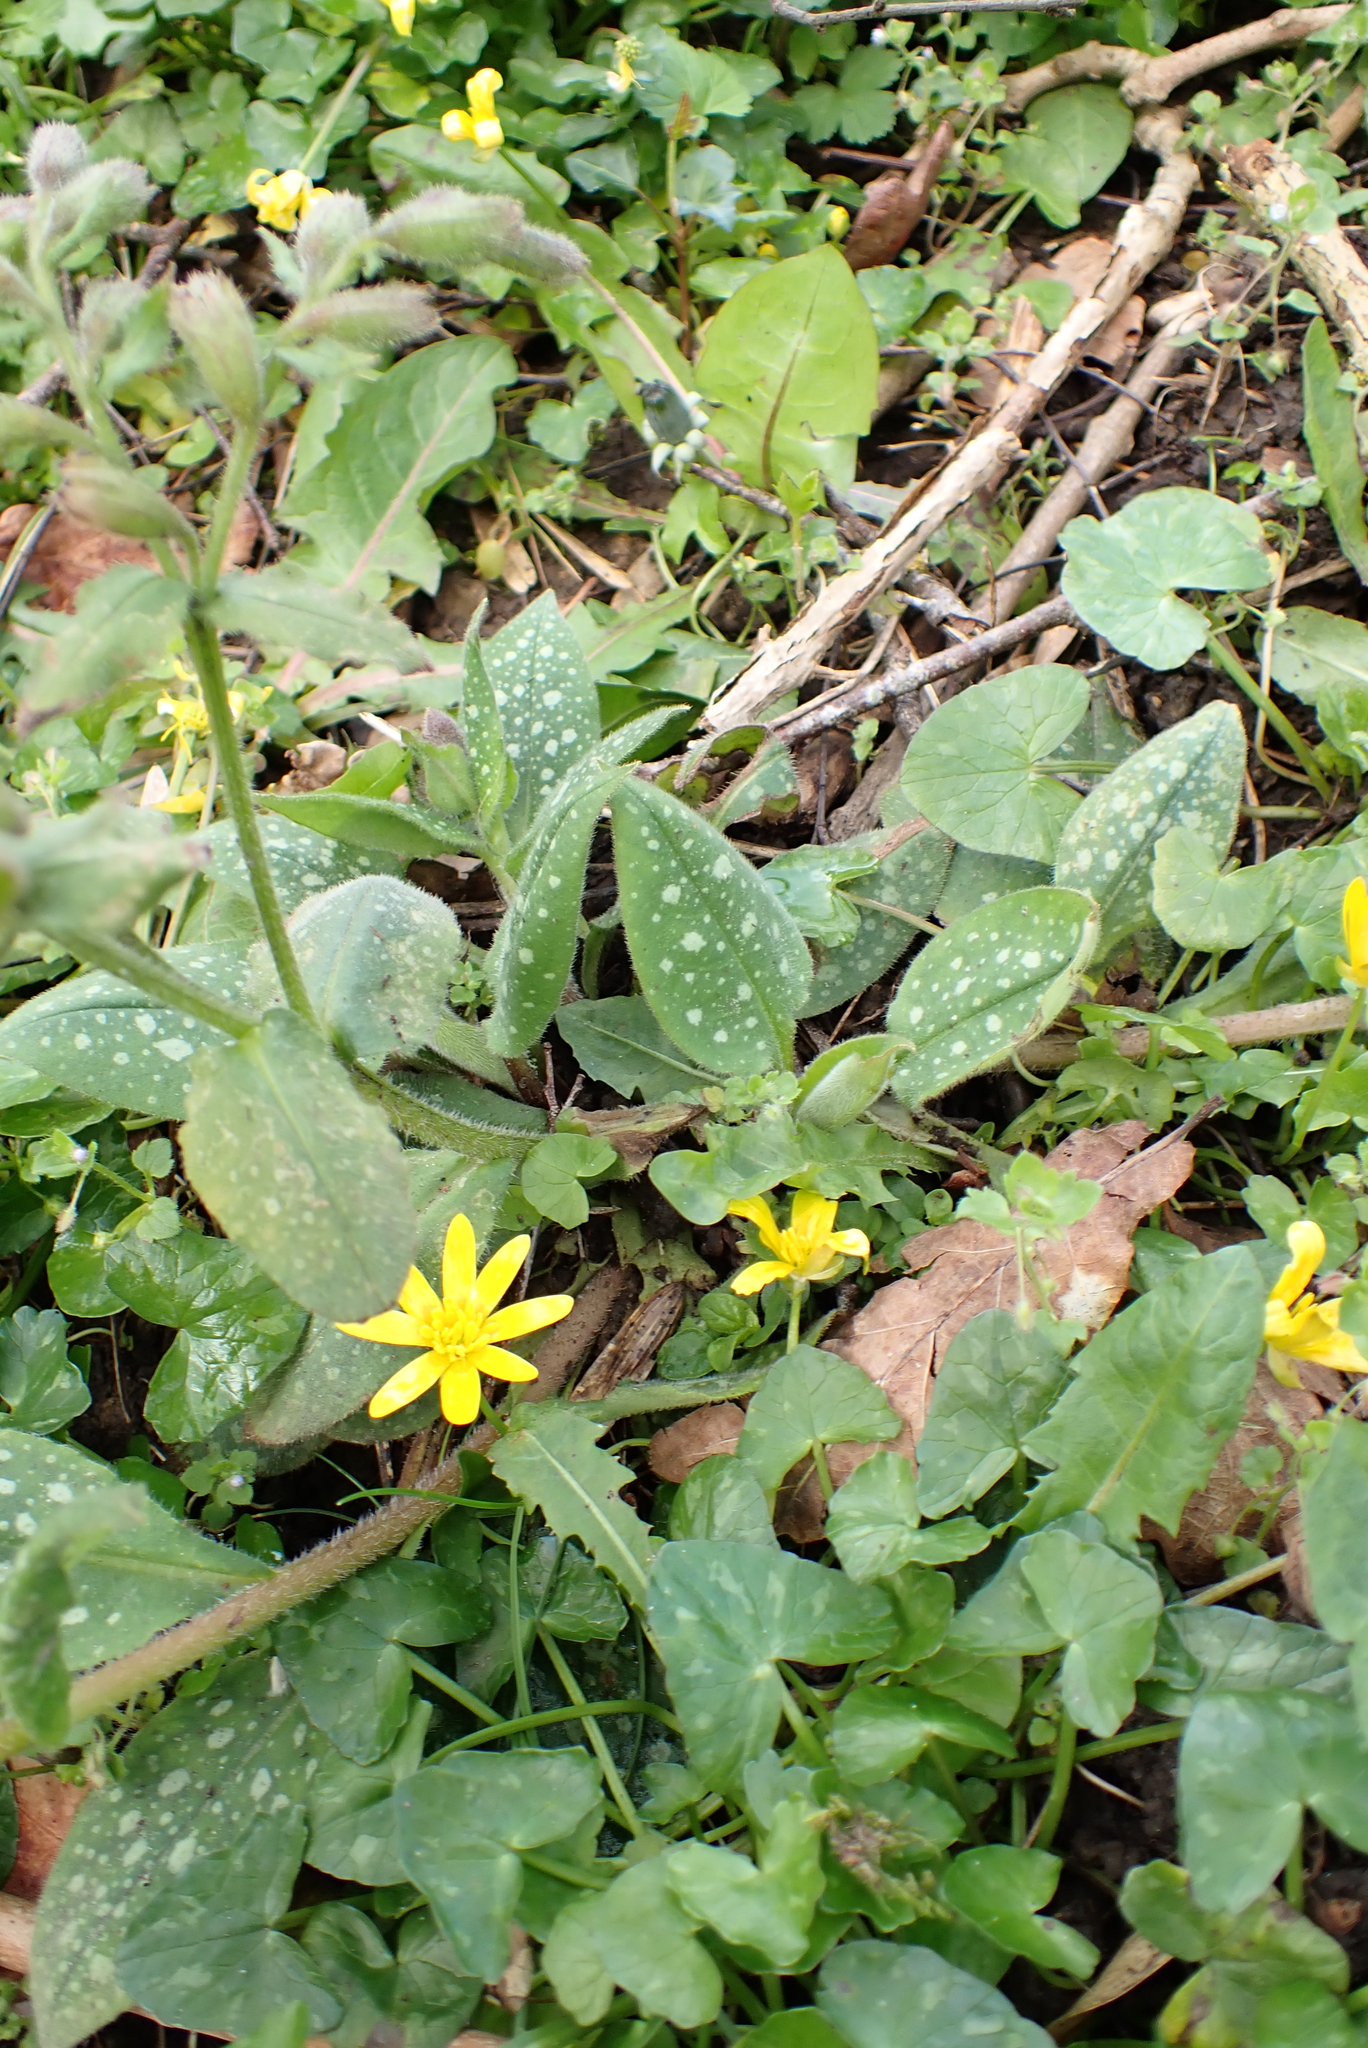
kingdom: Plantae
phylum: Tracheophyta
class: Magnoliopsida
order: Boraginales
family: Boraginaceae
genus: Pulmonaria
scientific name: Pulmonaria officinalis
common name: Lungwort
